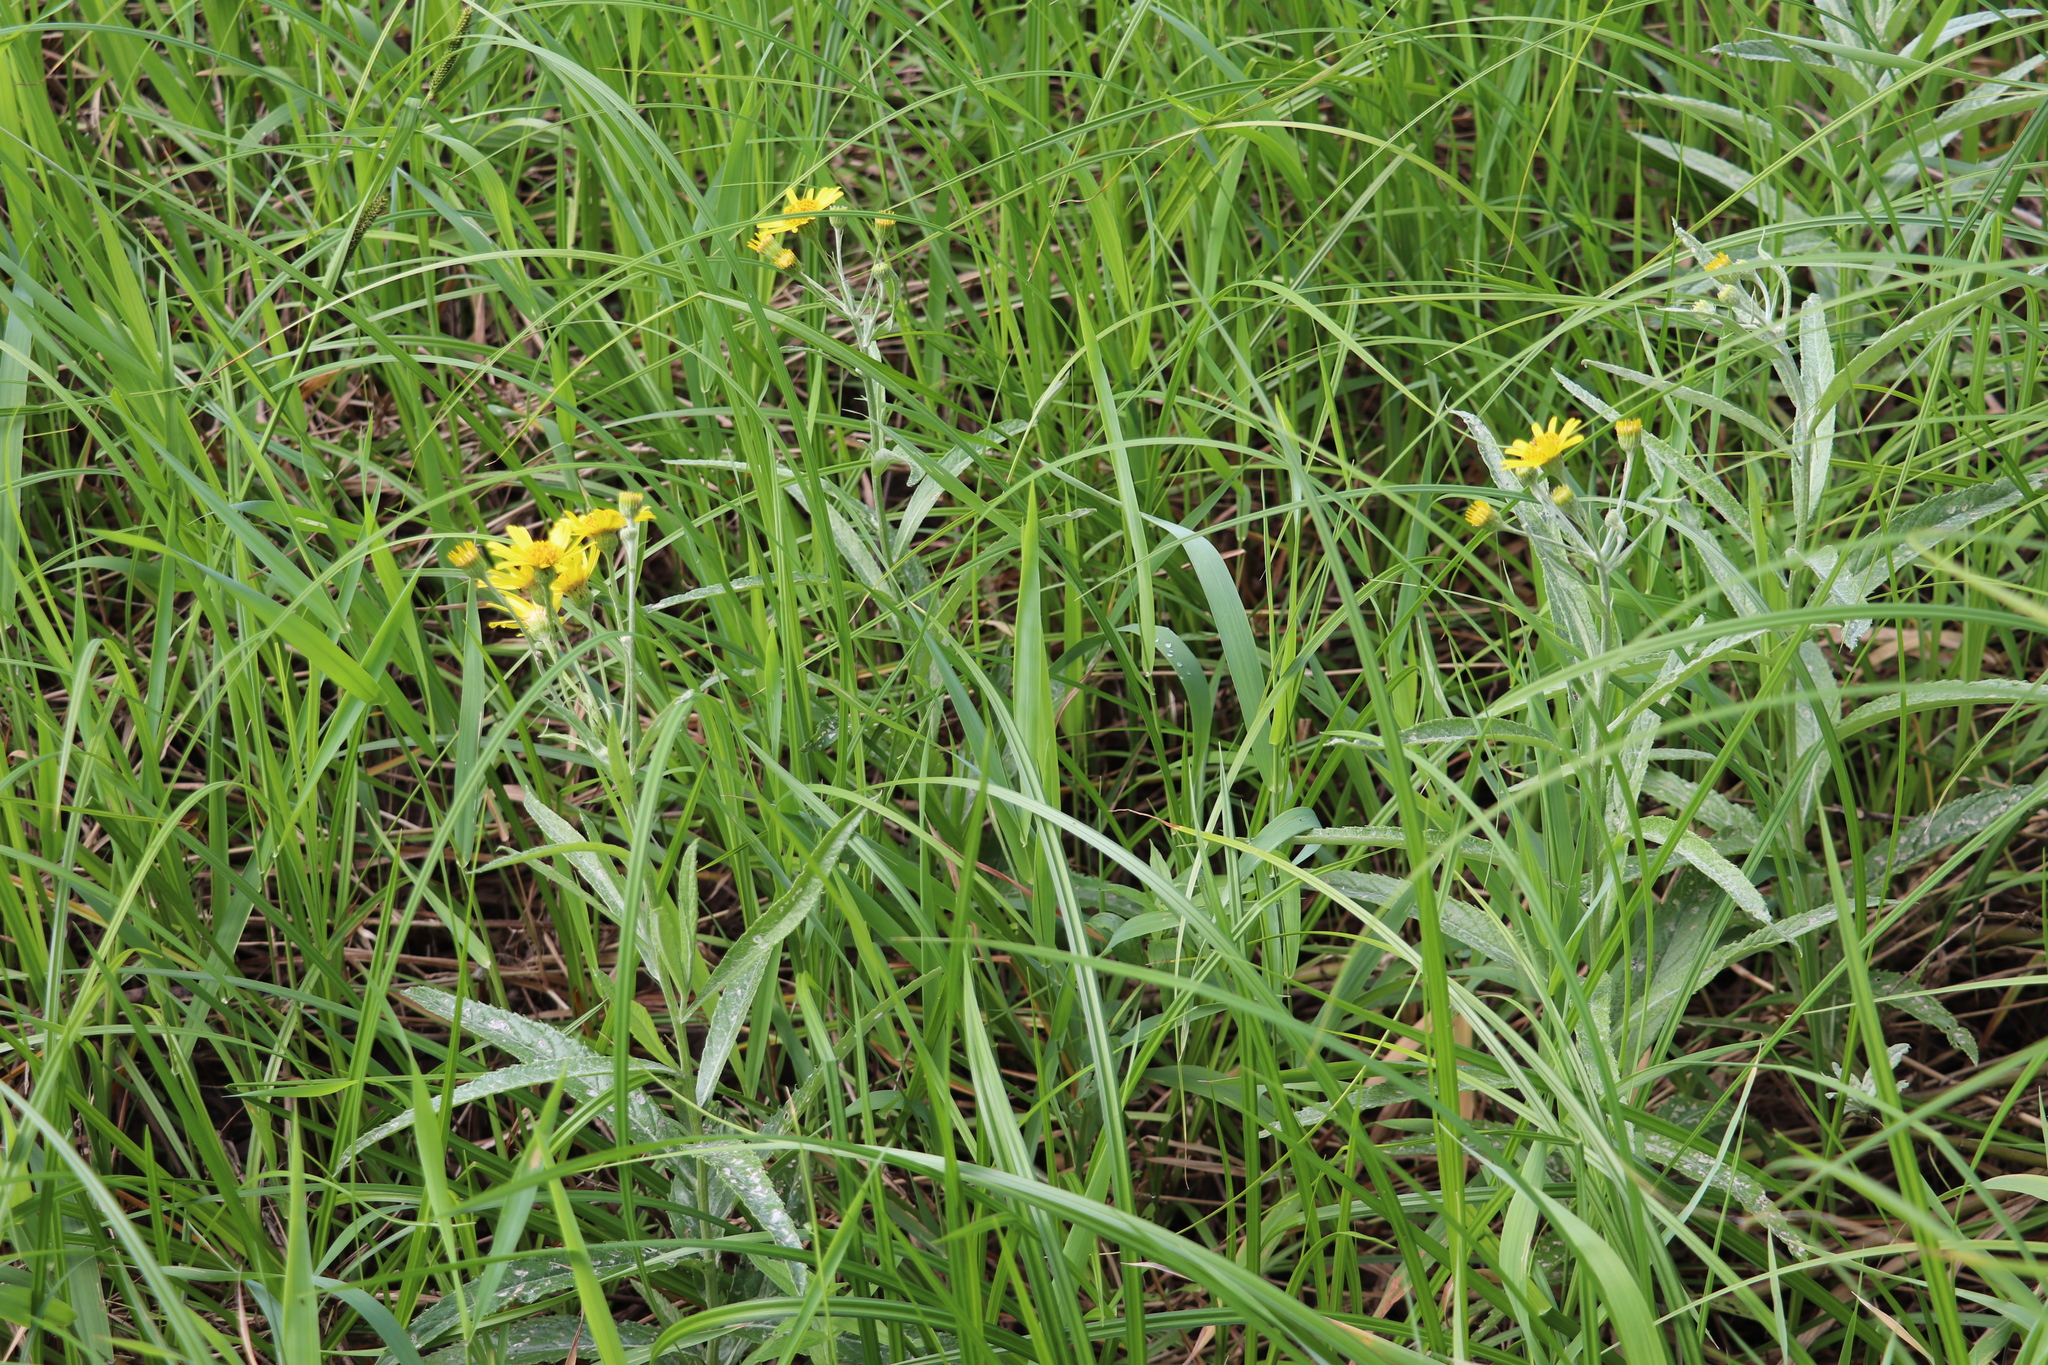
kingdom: Plantae
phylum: Tracheophyta
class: Magnoliopsida
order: Asterales
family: Asteraceae
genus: Jacobaea
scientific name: Jacobaea paludosa
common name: Fen ragwort
